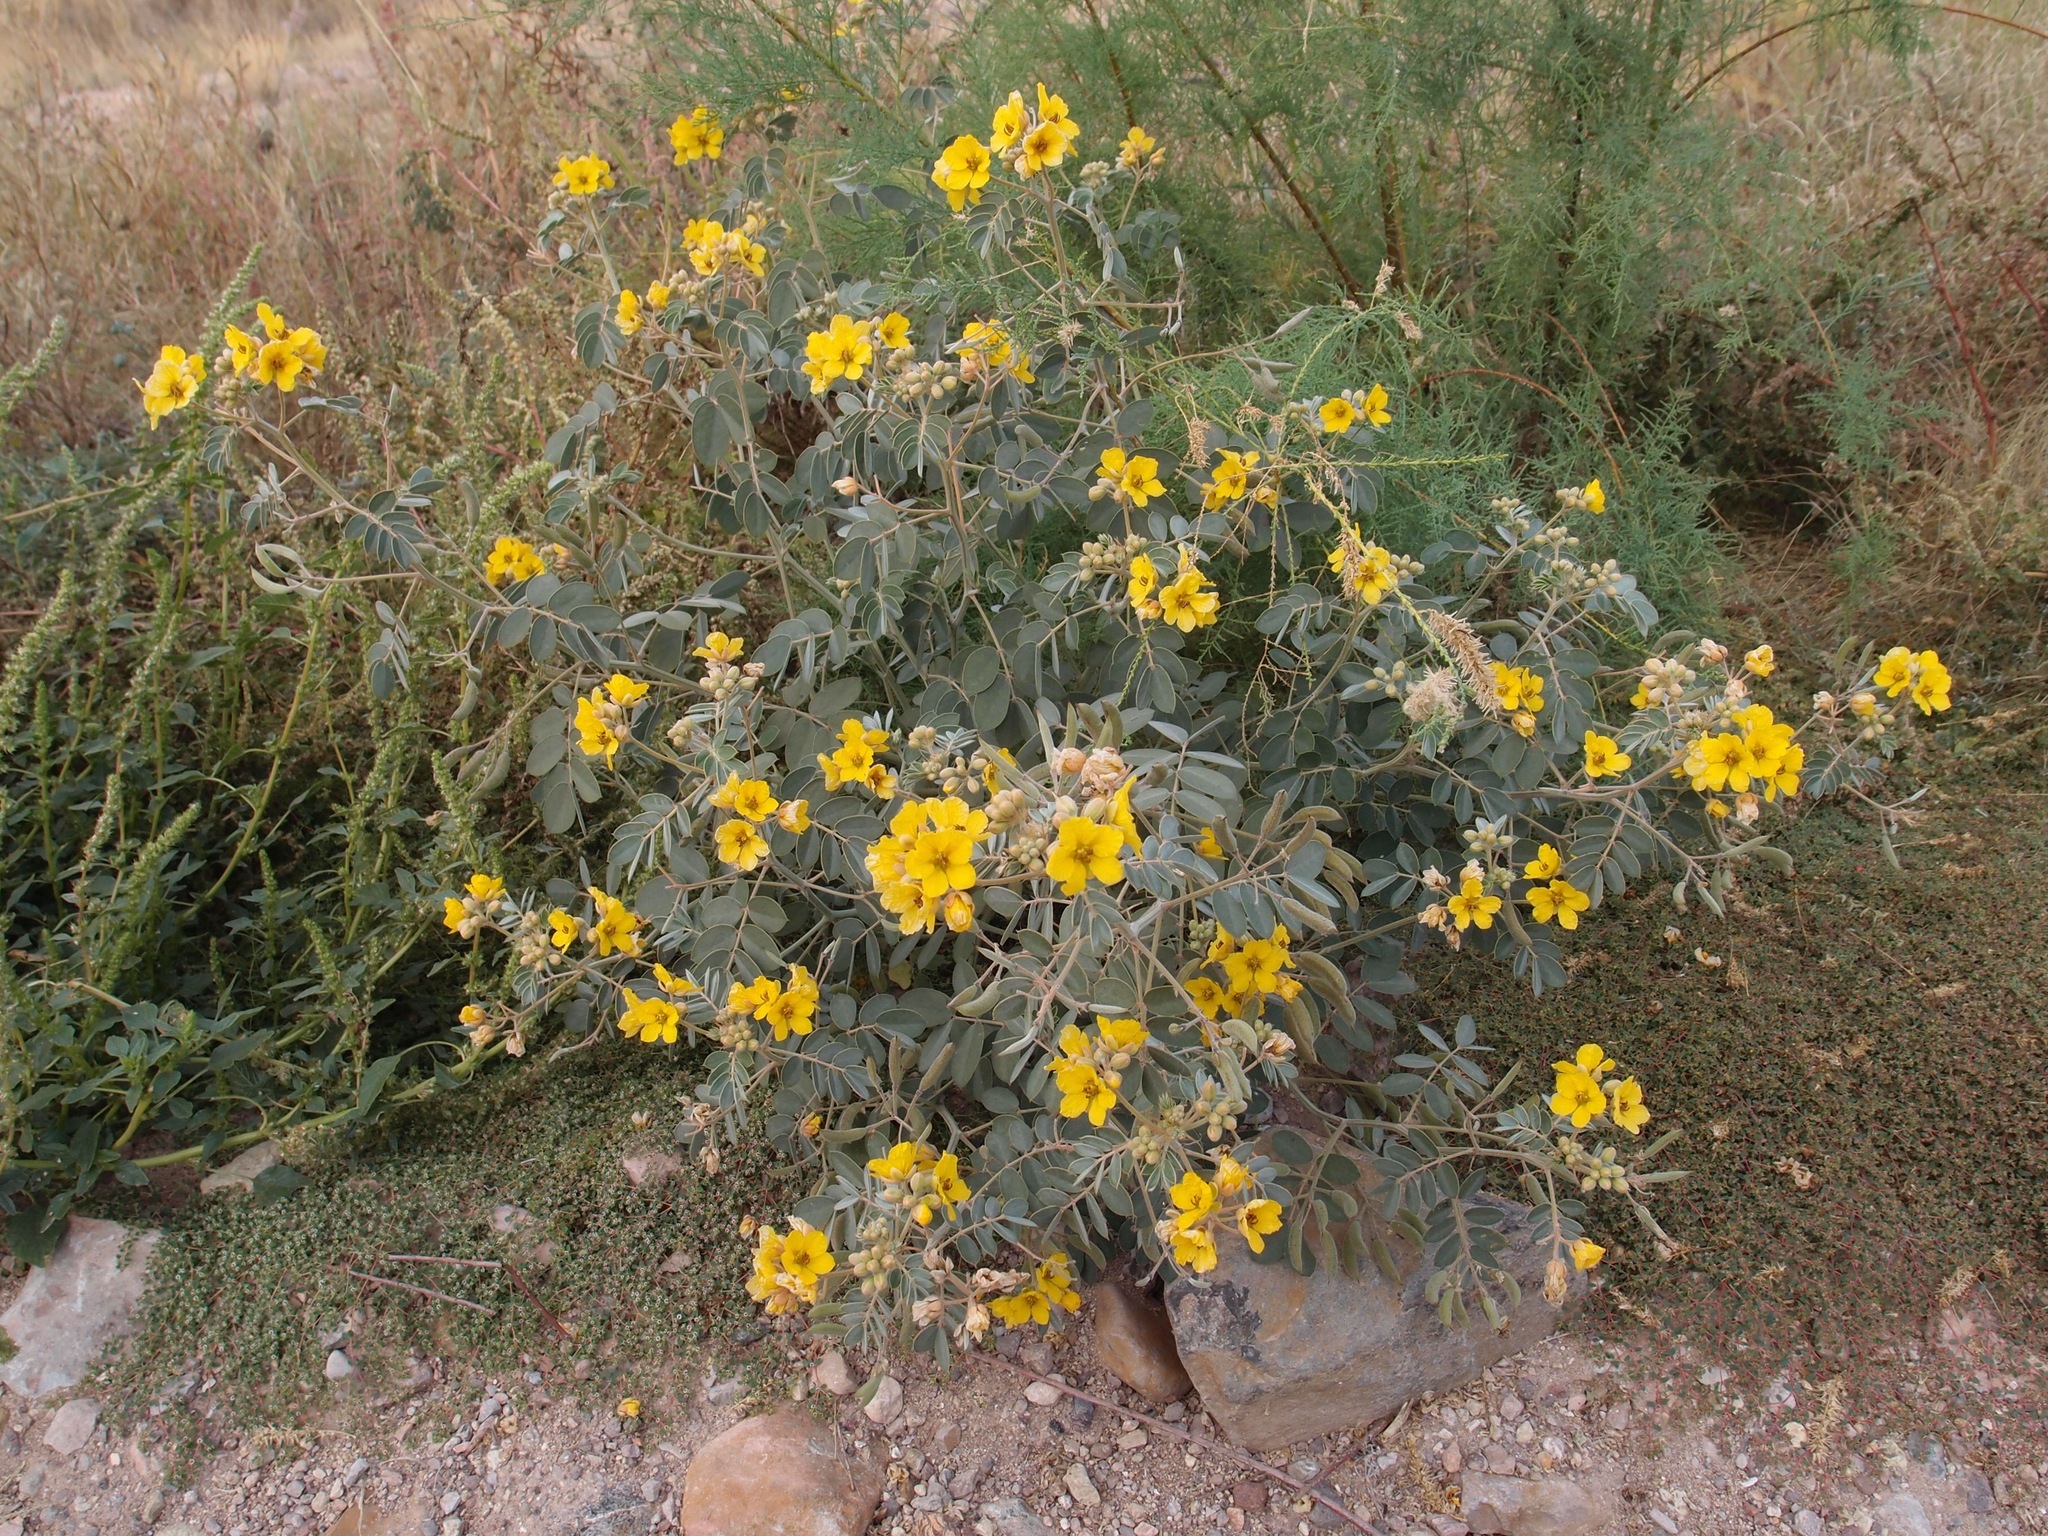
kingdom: Plantae
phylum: Tracheophyta
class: Magnoliopsida
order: Fabales
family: Fabaceae
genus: Senna
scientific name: Senna covesii
